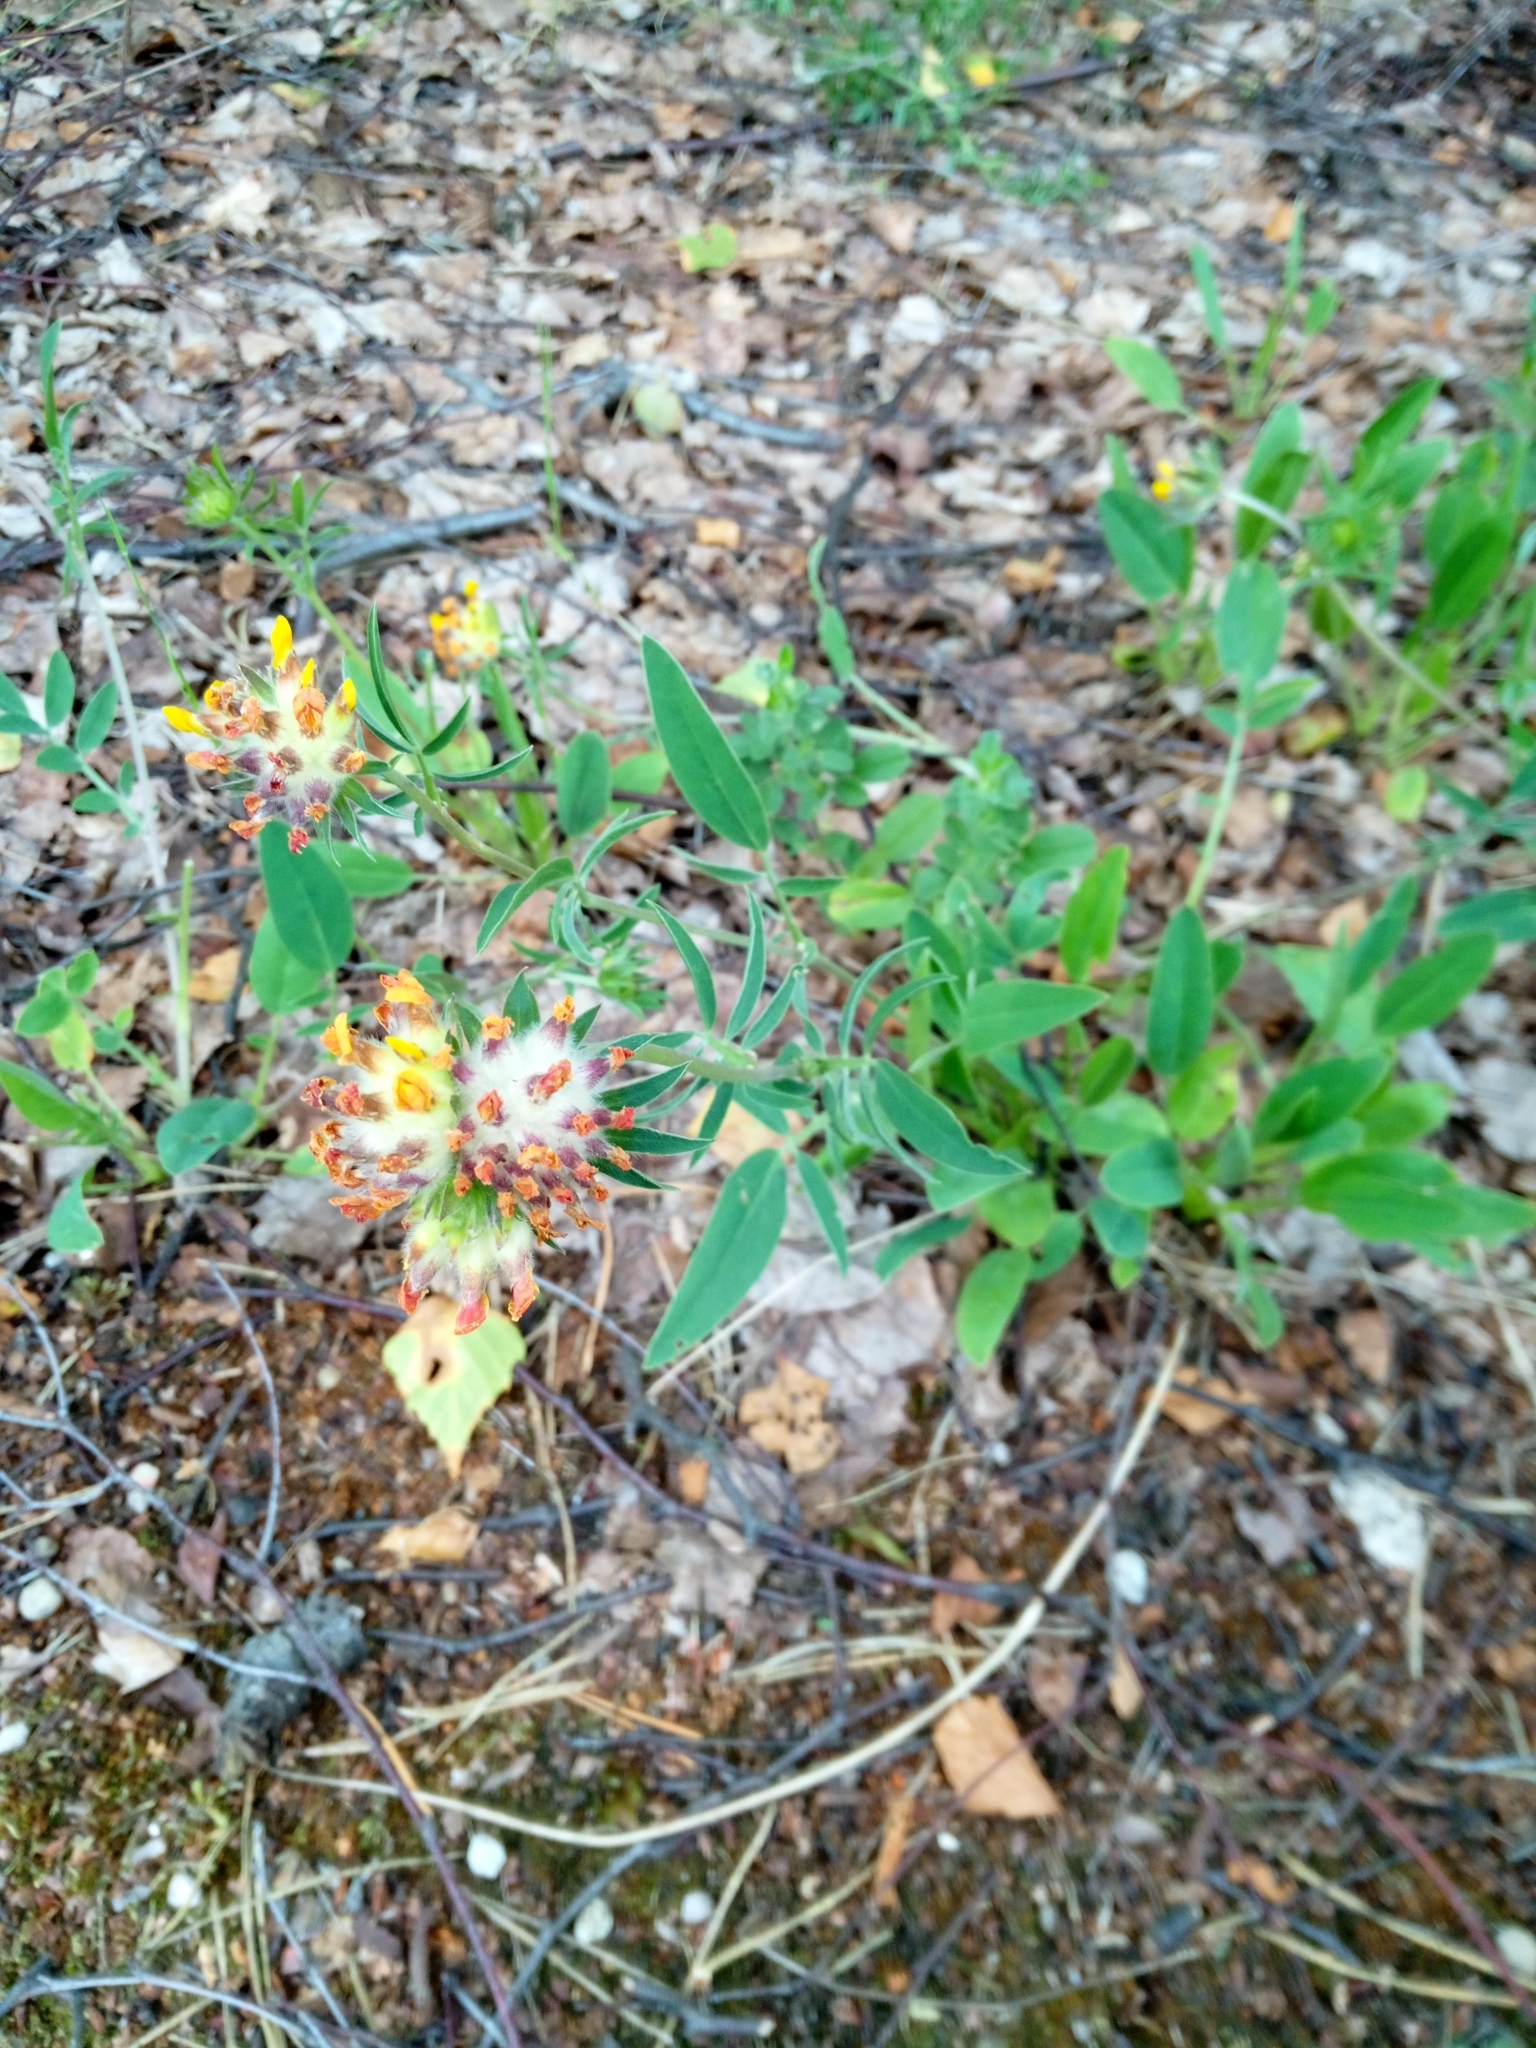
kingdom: Plantae
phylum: Tracheophyta
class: Magnoliopsida
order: Fabales
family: Fabaceae
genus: Anthyllis
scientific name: Anthyllis vulneraria
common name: Kidney vetch
